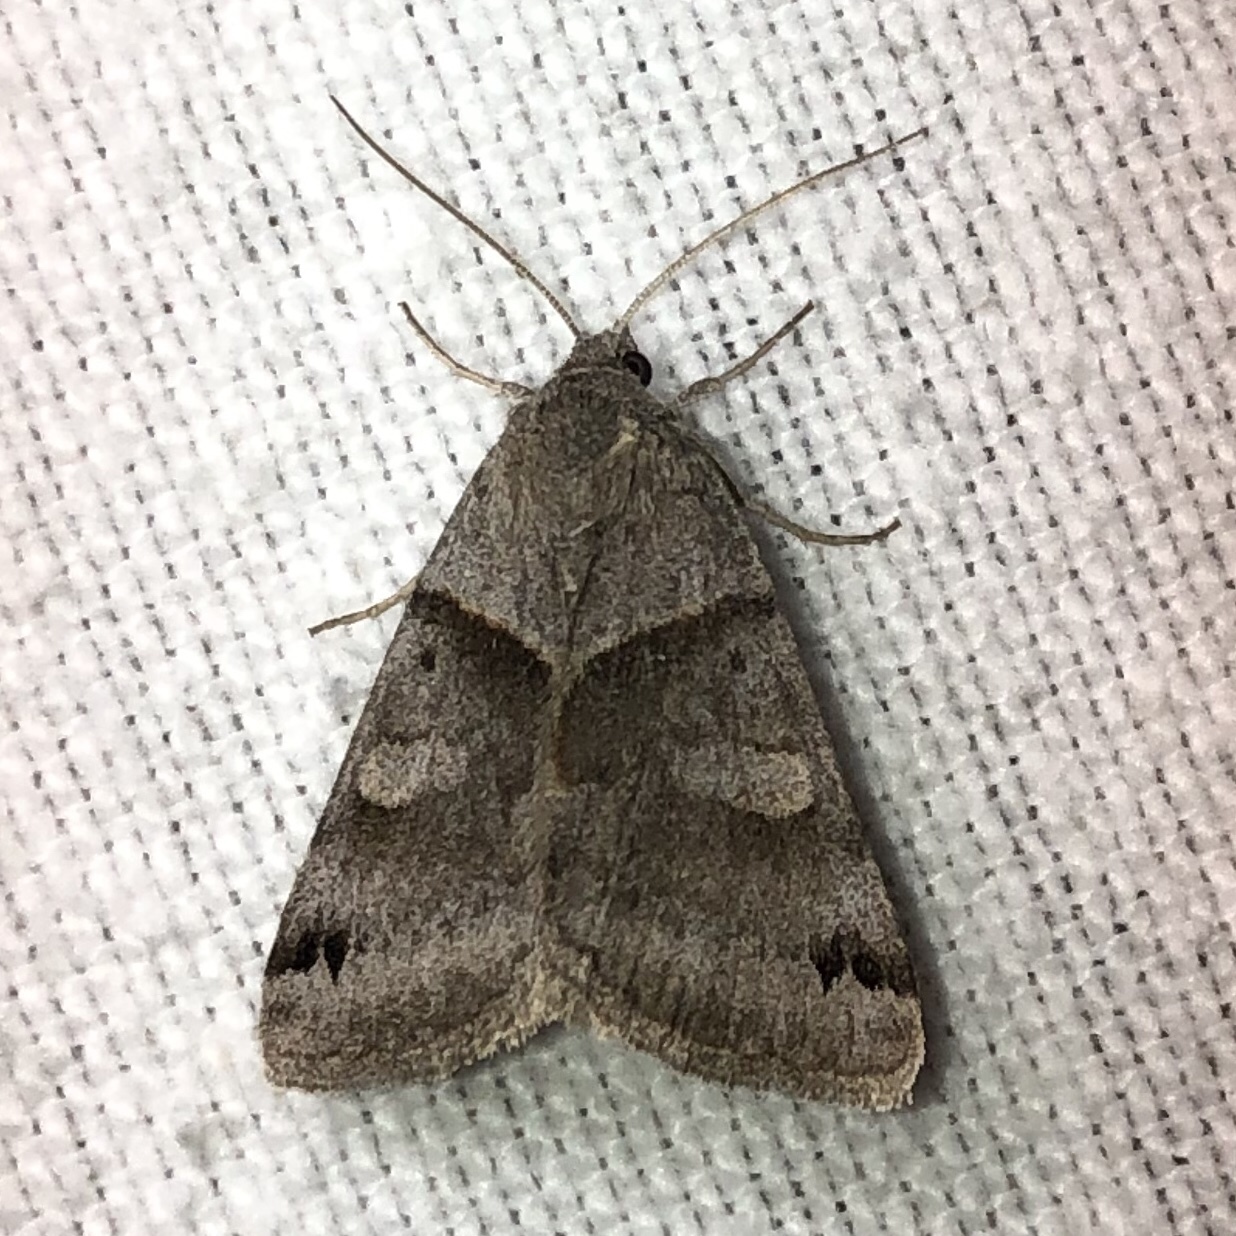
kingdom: Animalia
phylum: Arthropoda
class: Insecta
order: Lepidoptera
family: Erebidae
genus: Caenurgina
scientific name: Caenurgina crassiuscula
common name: Double-barred
